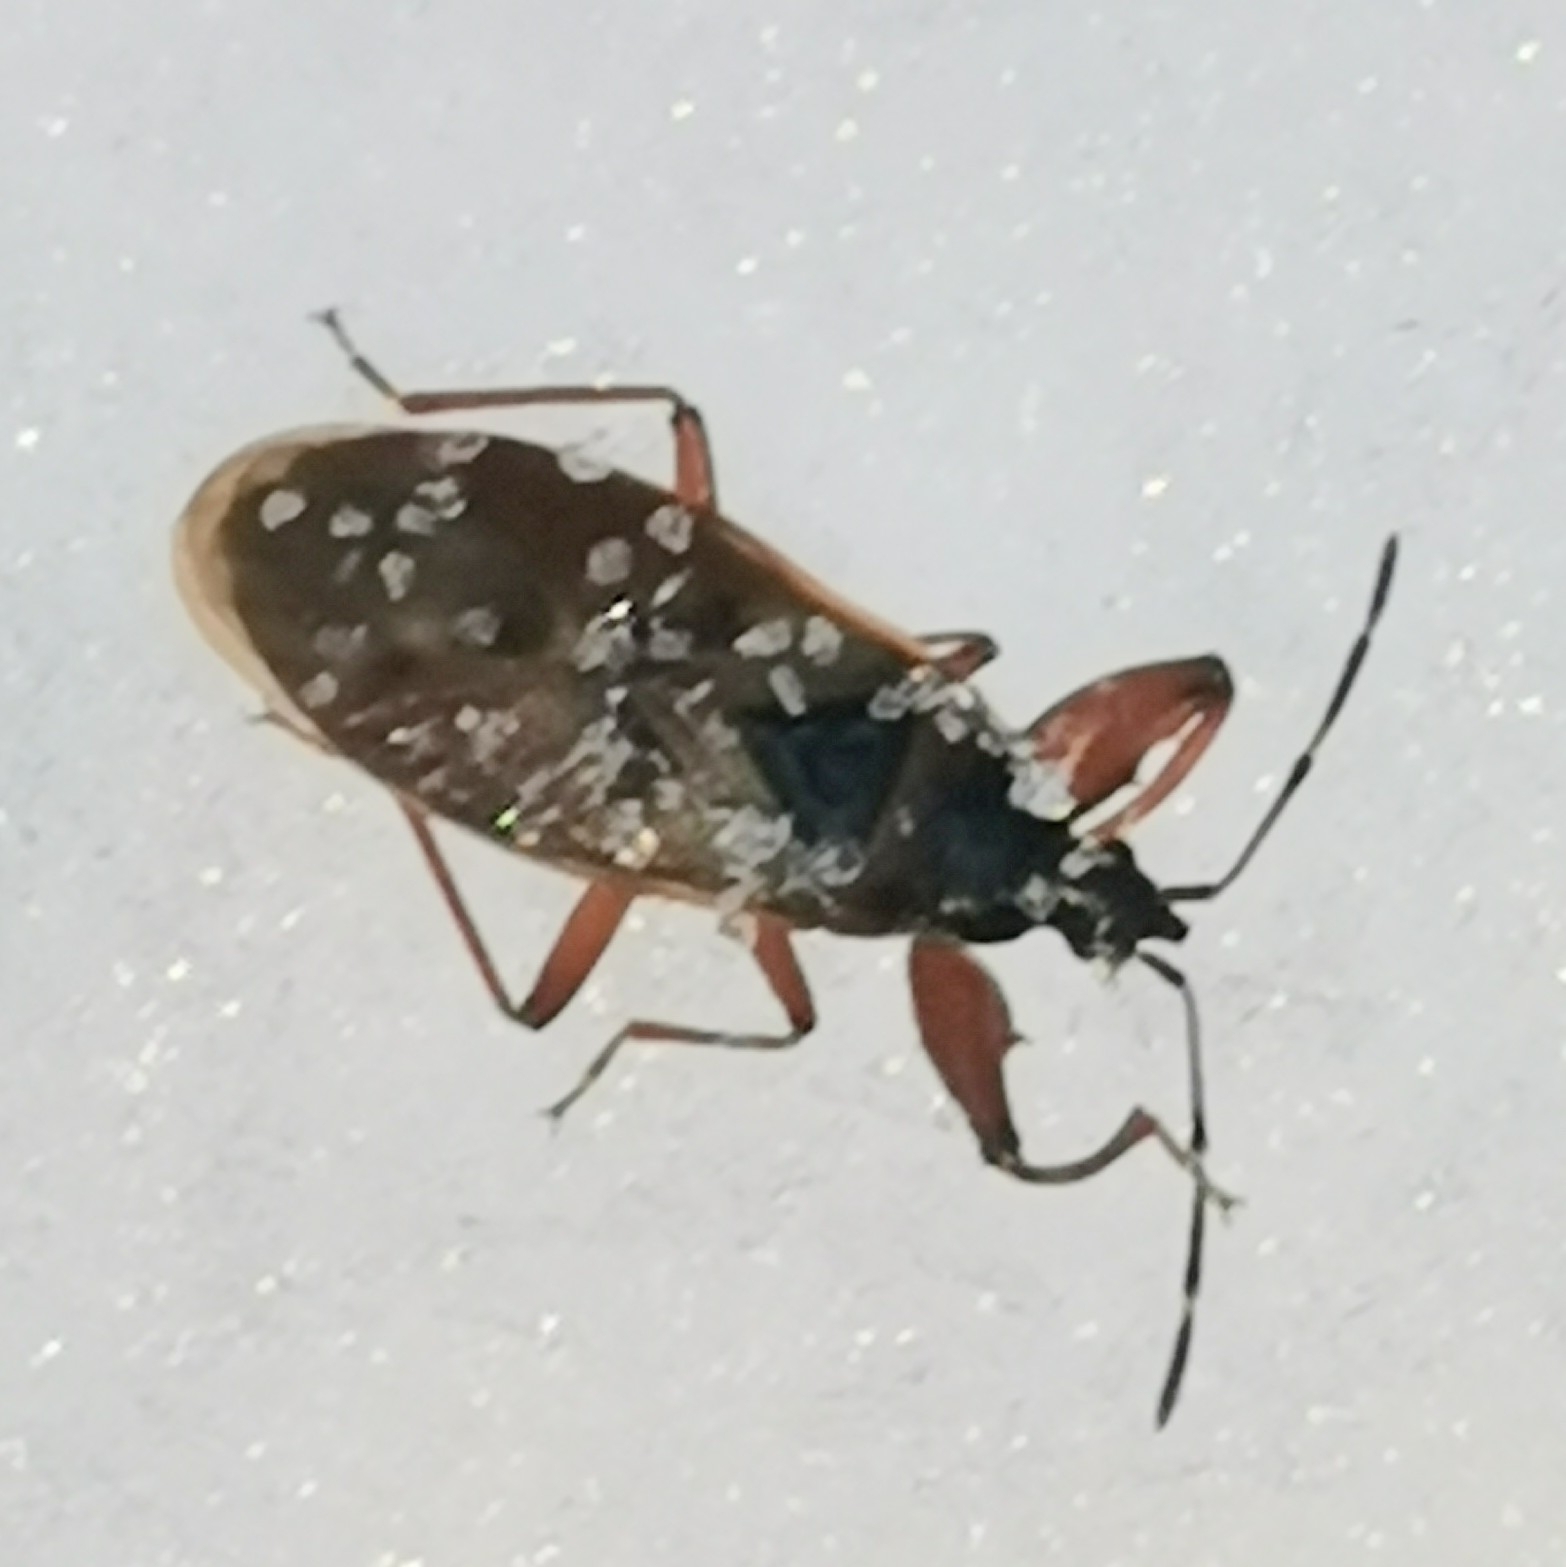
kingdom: Animalia
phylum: Arthropoda
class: Insecta
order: Hemiptera
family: Rhyparochromidae
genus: Gastrodes
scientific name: Gastrodes abietum
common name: Spruce cone bug
